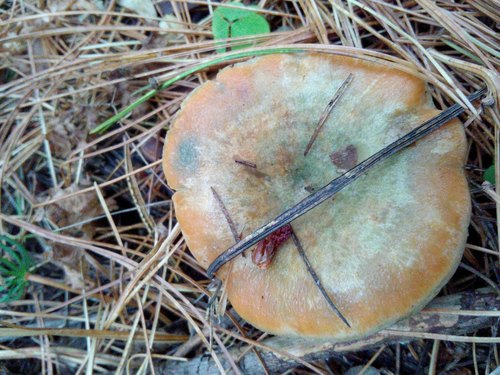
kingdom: Fungi
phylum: Basidiomycota
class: Agaricomycetes
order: Russulales
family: Russulaceae
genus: Lactarius
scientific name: Lactarius deliciosus
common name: Saffron milk-cap
